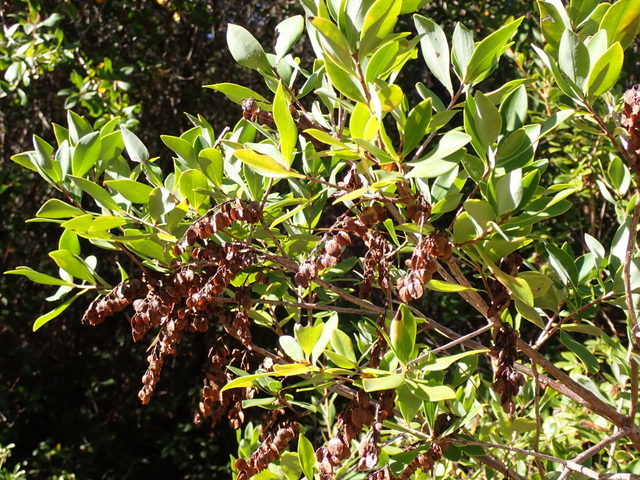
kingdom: Plantae
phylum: Tracheophyta
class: Magnoliopsida
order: Ericales
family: Cyrillaceae
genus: Cliftonia
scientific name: Cliftonia monophylla
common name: Titi
